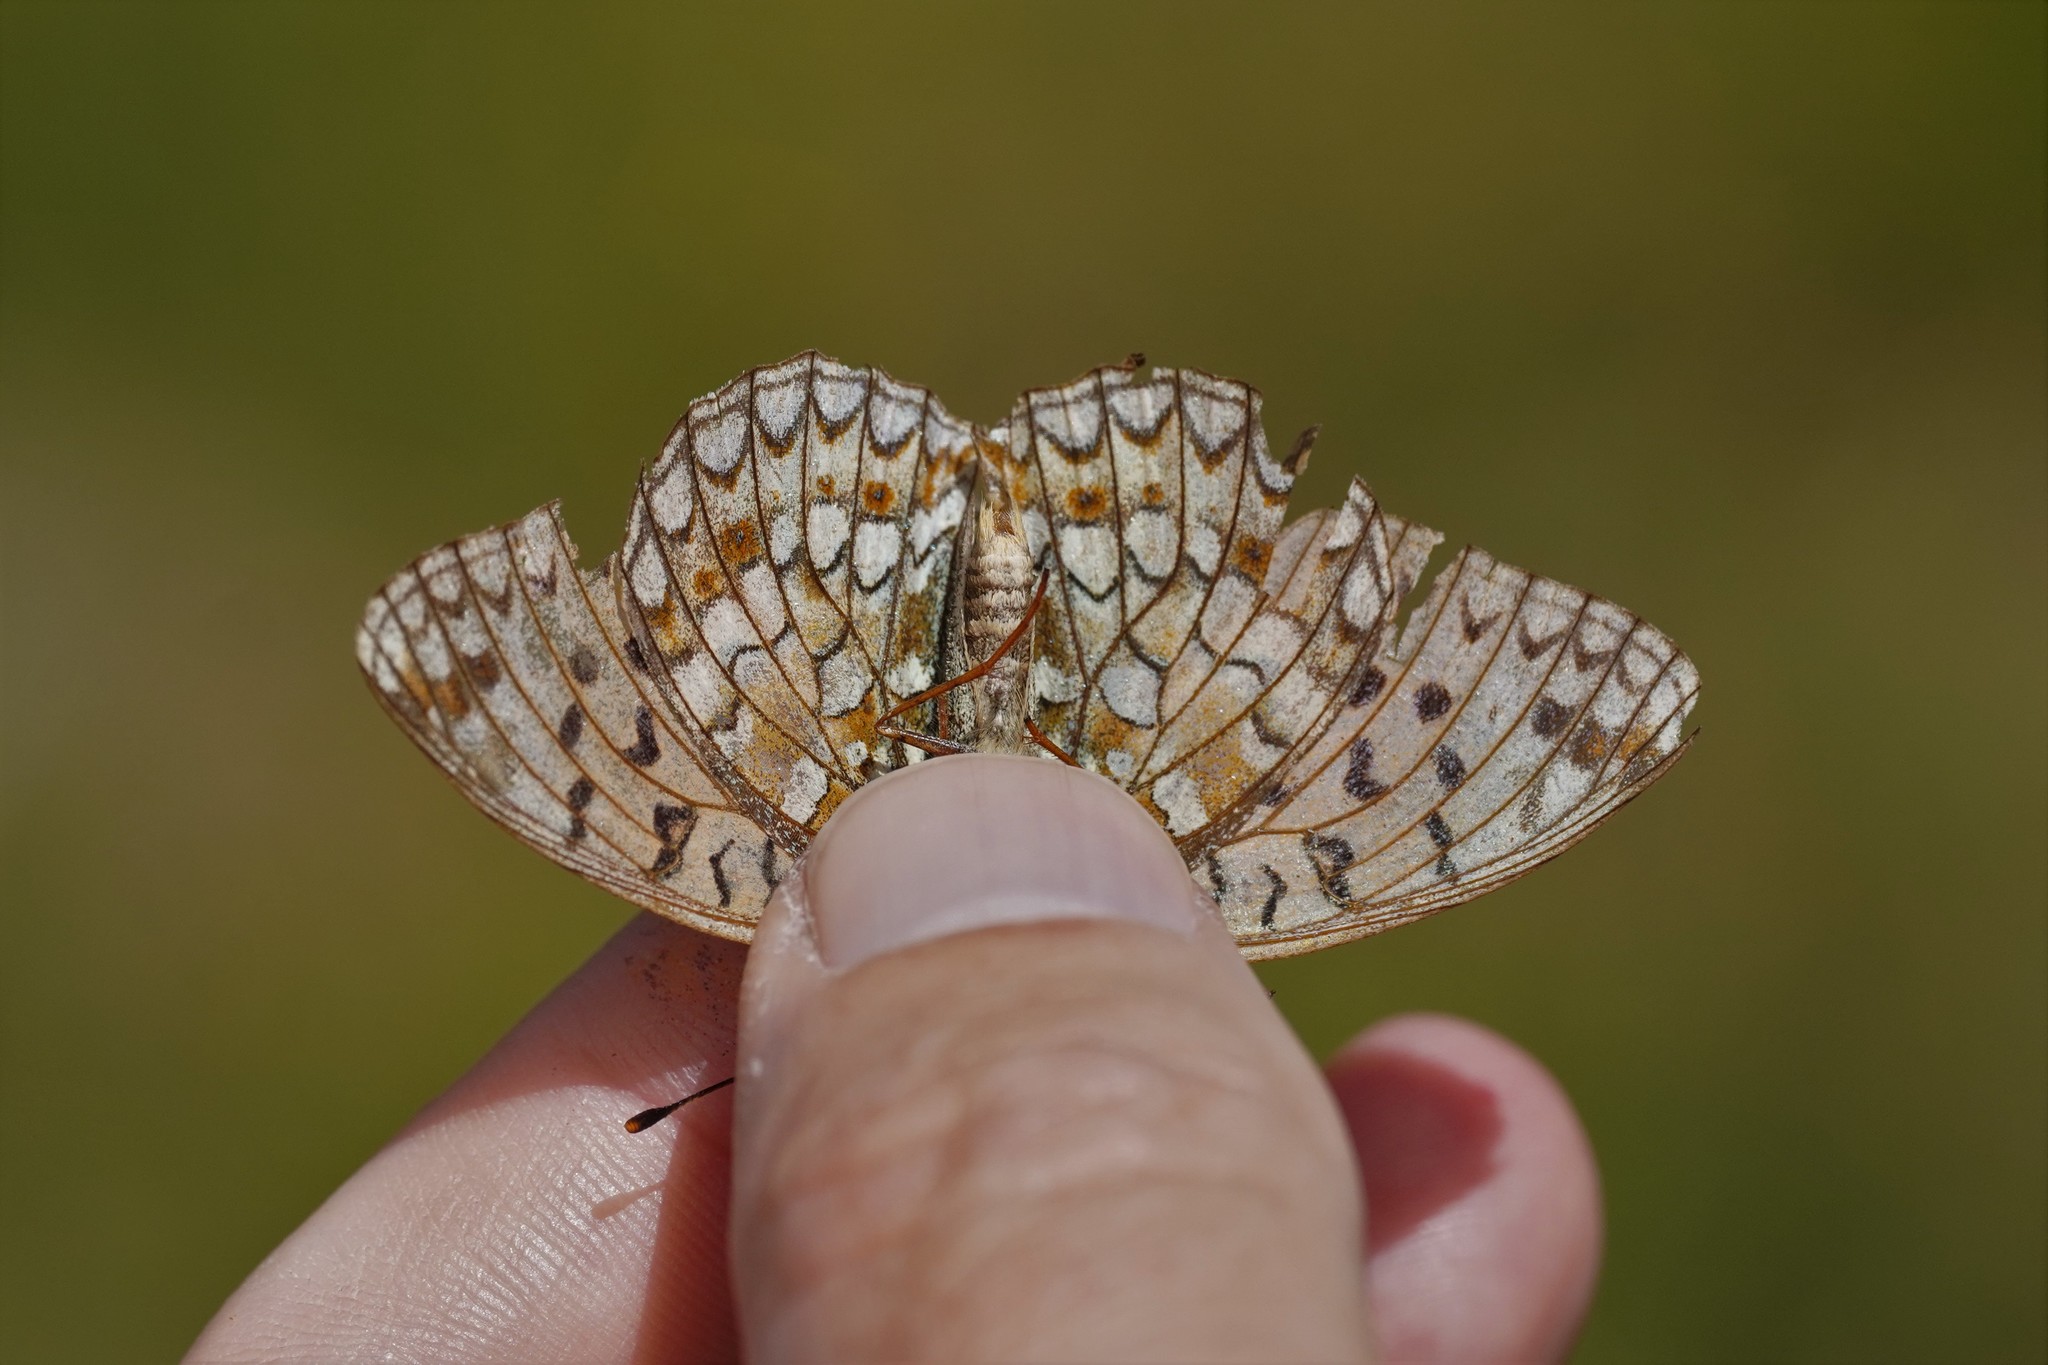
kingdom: Animalia
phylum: Arthropoda
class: Insecta
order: Lepidoptera
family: Nymphalidae
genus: Fabriciana
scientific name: Fabriciana niobe
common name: Niobe fritillary
